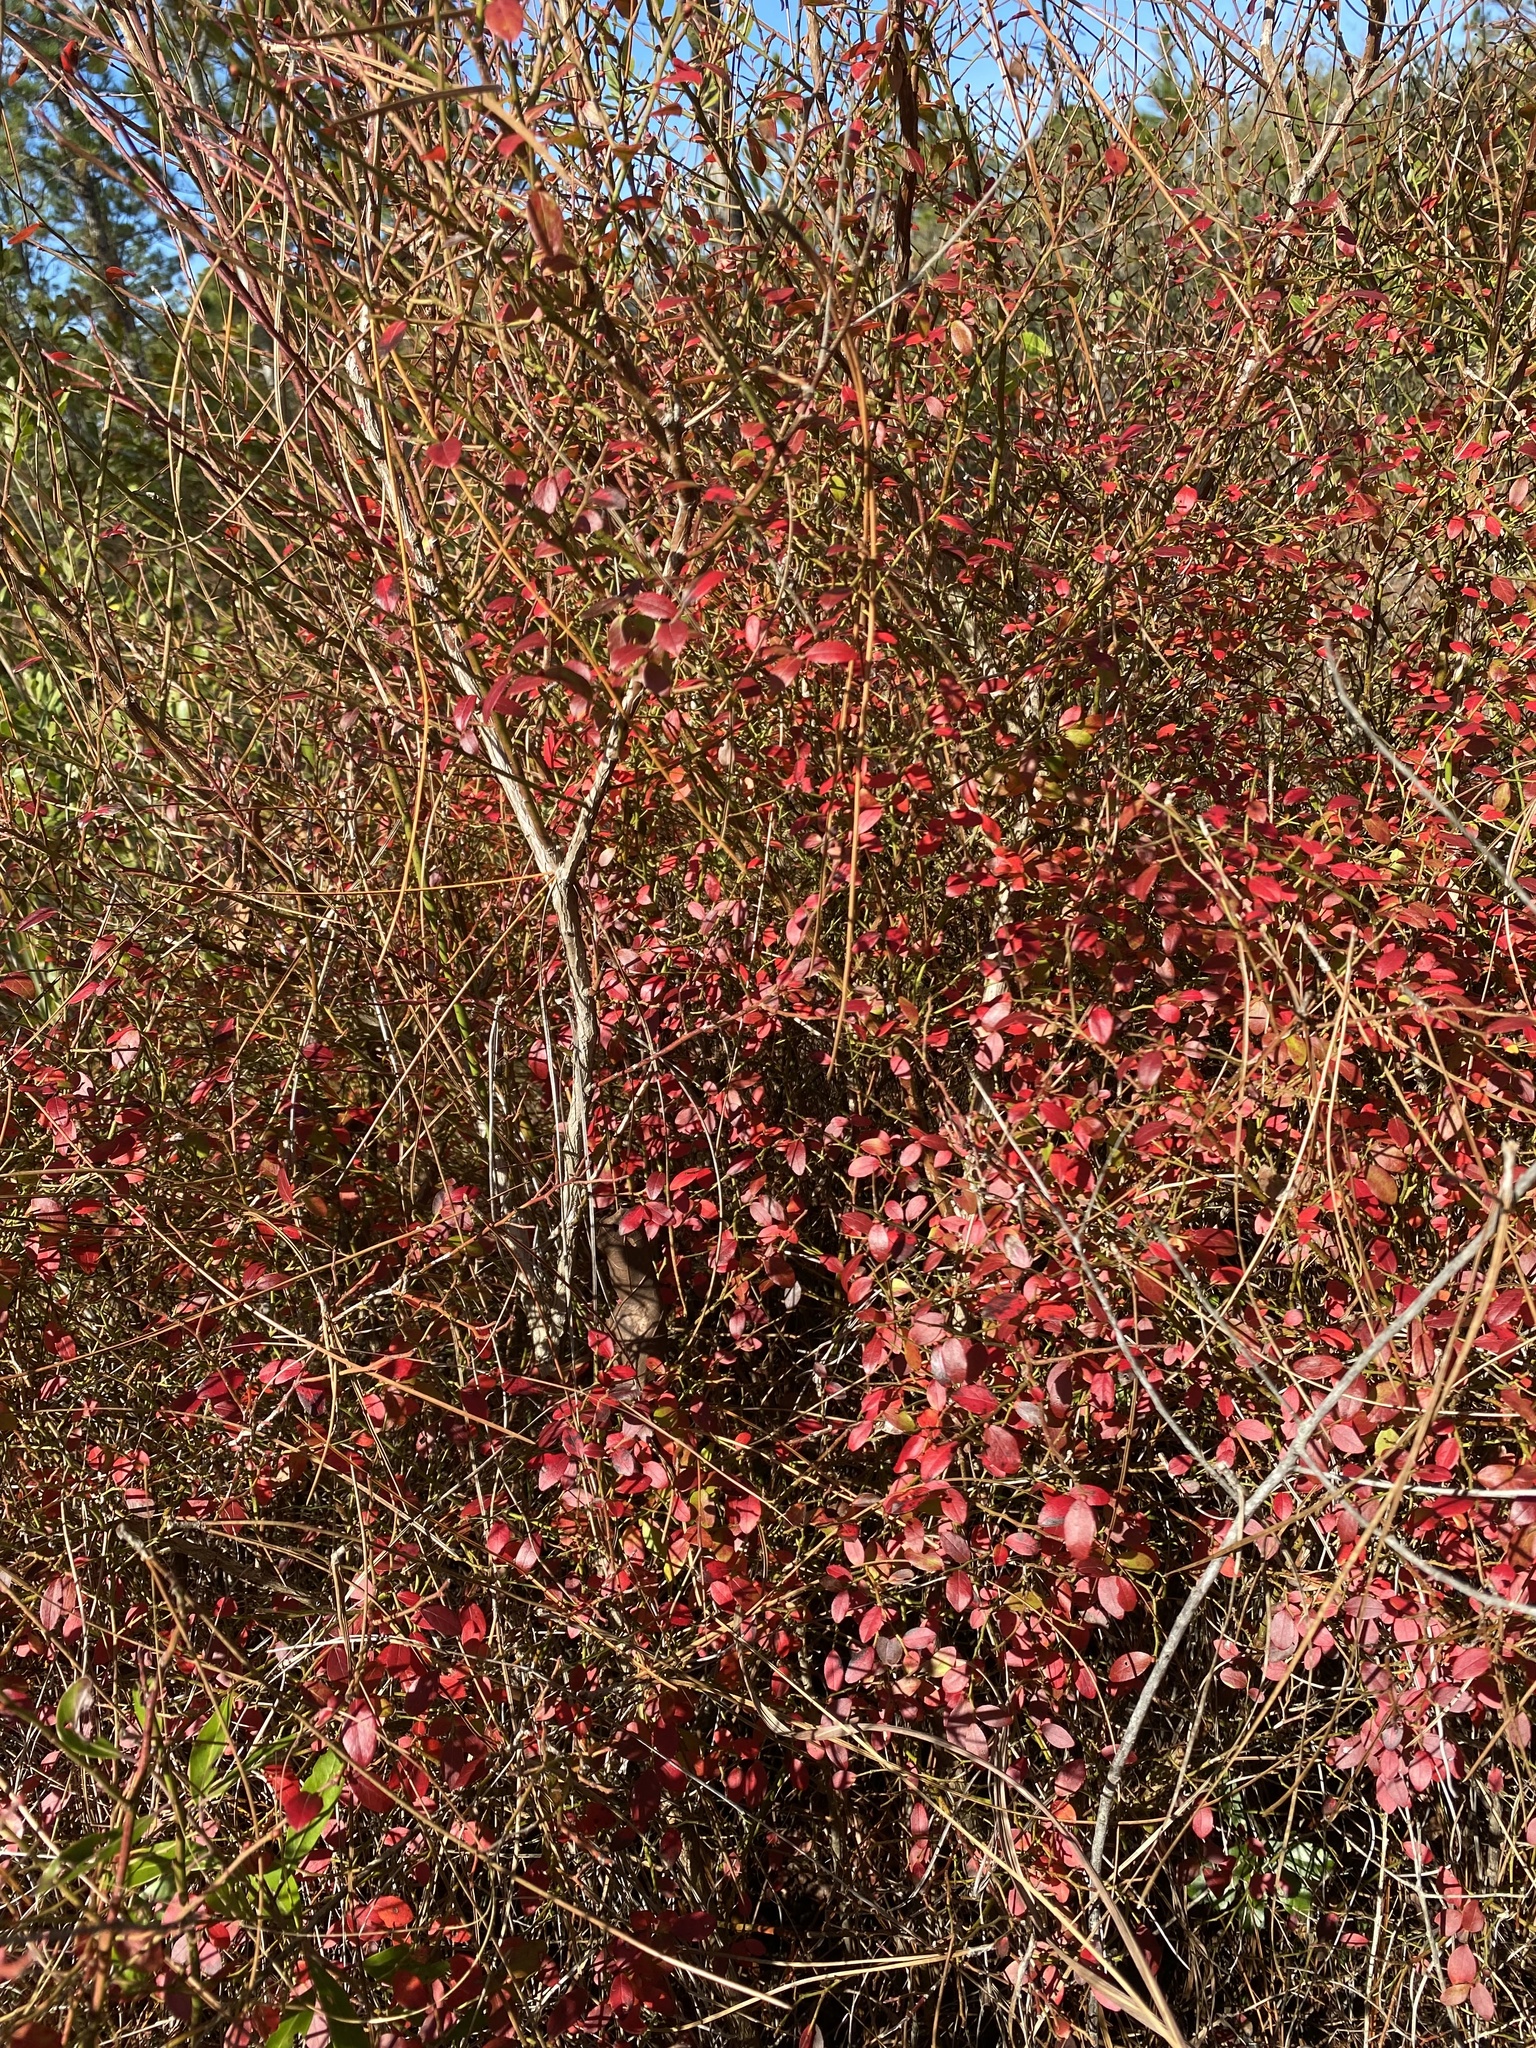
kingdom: Plantae
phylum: Tracheophyta
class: Magnoliopsida
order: Ericales
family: Ericaceae
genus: Vaccinium
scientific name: Vaccinium corymbosum
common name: Blueberry
